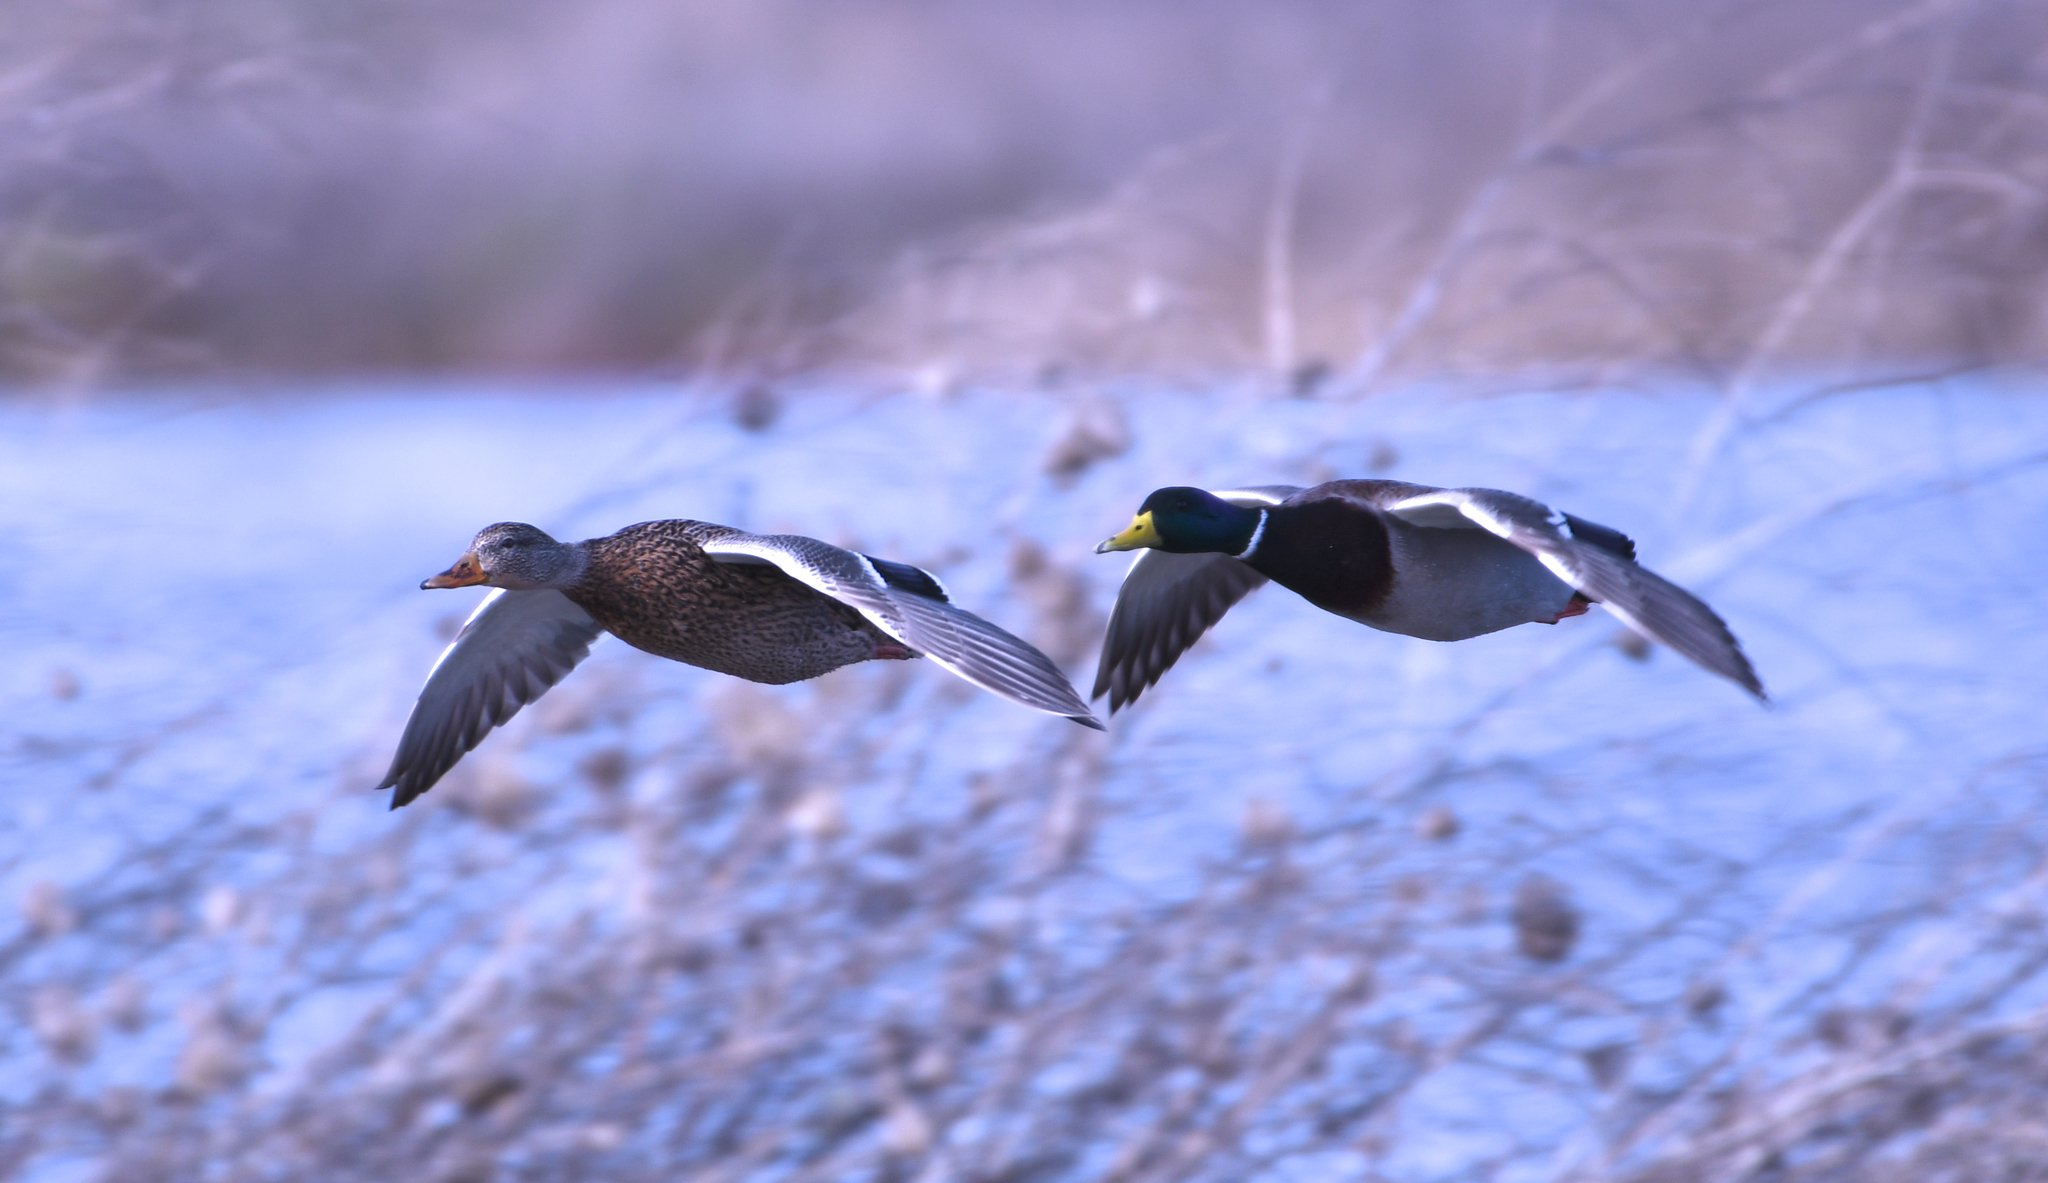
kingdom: Animalia
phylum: Chordata
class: Aves
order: Anseriformes
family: Anatidae
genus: Anas
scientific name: Anas platyrhynchos
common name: Mallard
